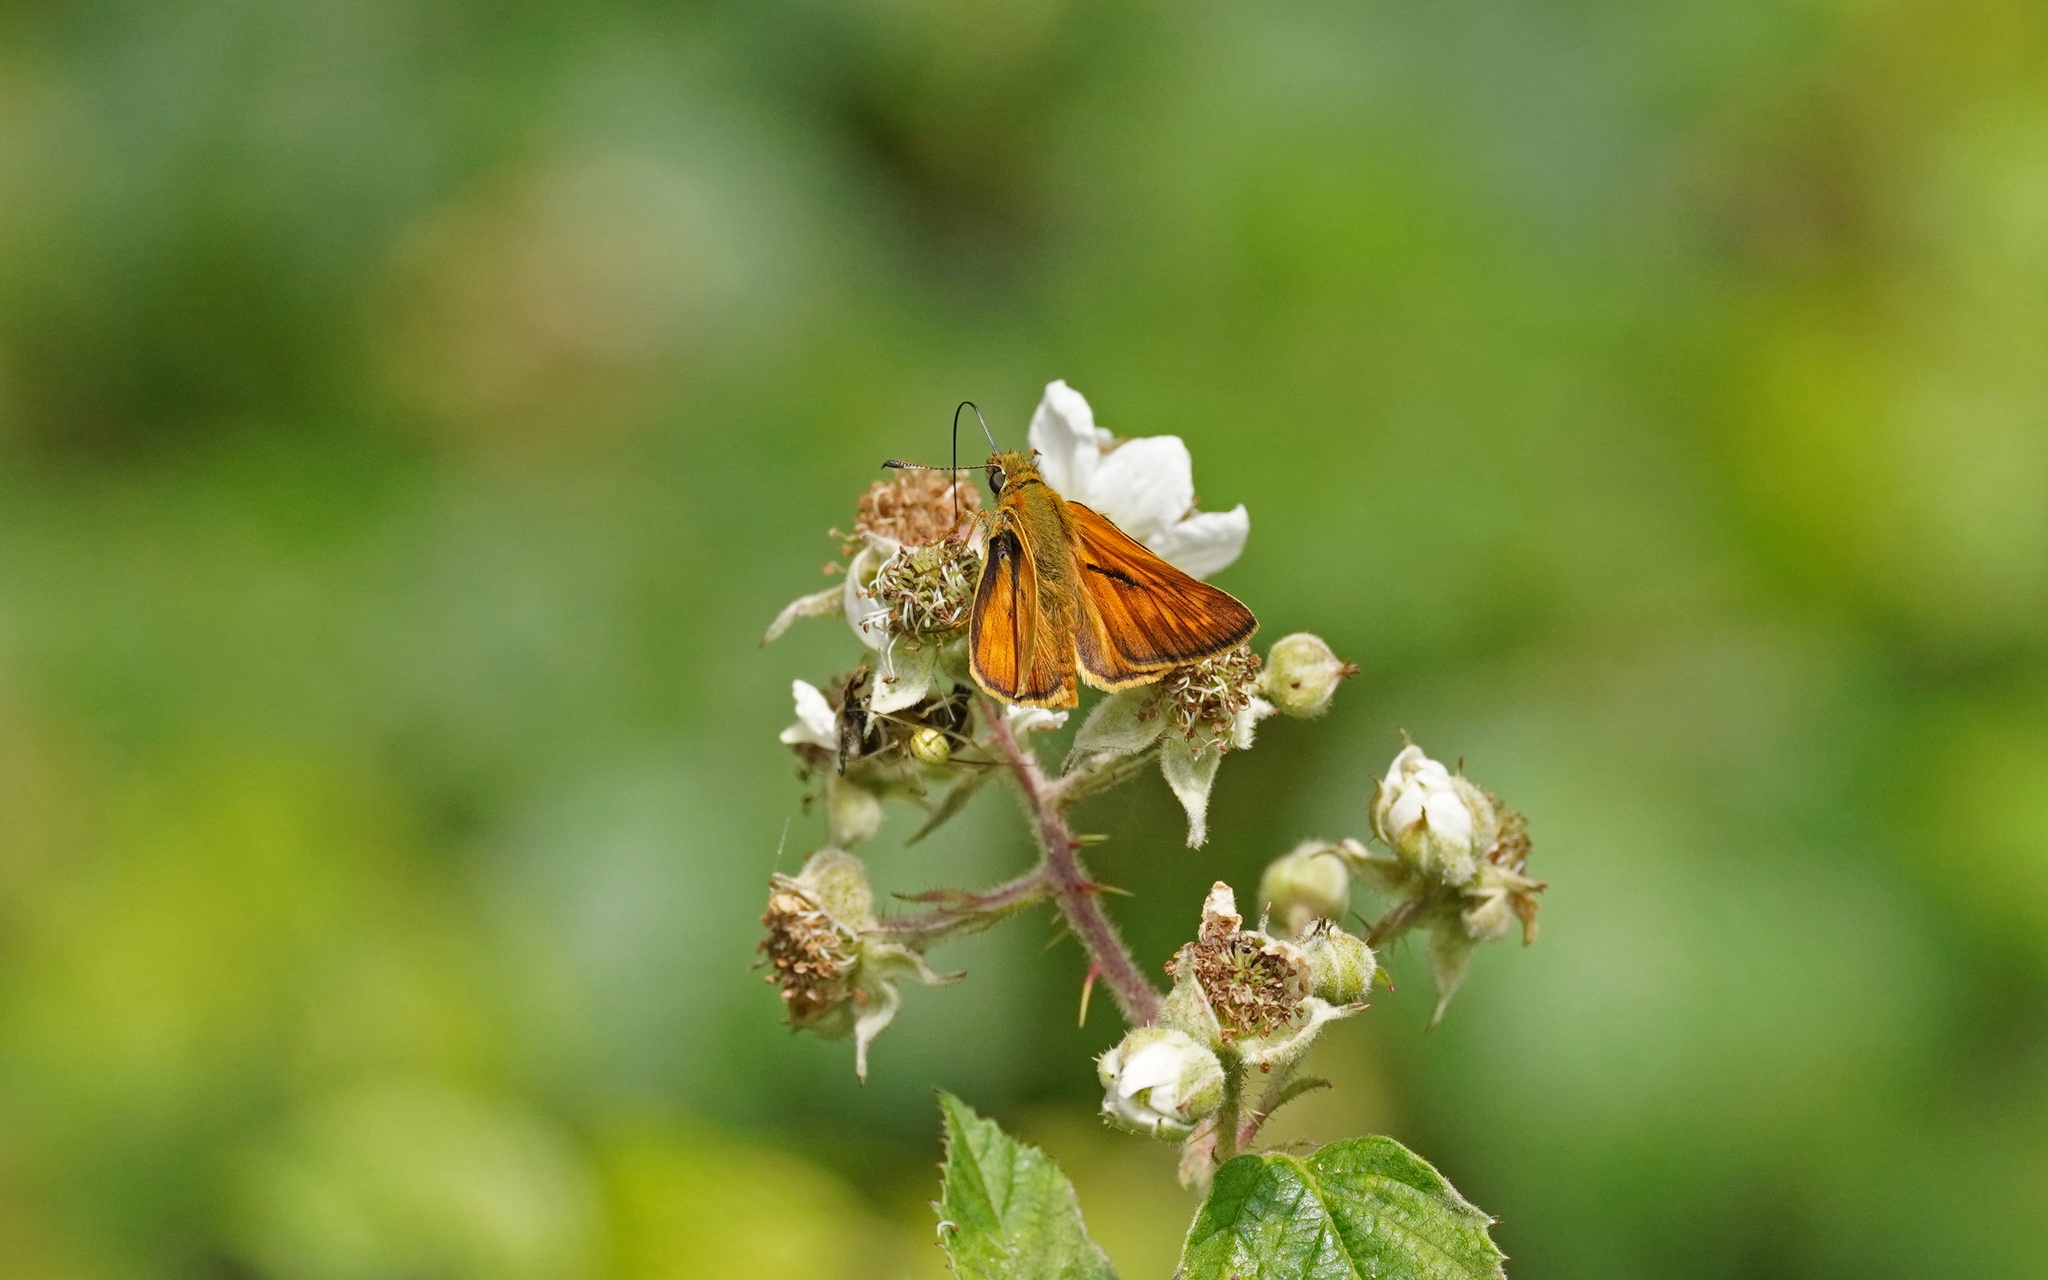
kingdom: Animalia
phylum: Arthropoda
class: Insecta
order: Lepidoptera
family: Hesperiidae
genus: Ochlodes
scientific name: Ochlodes venata
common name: Large skipper
